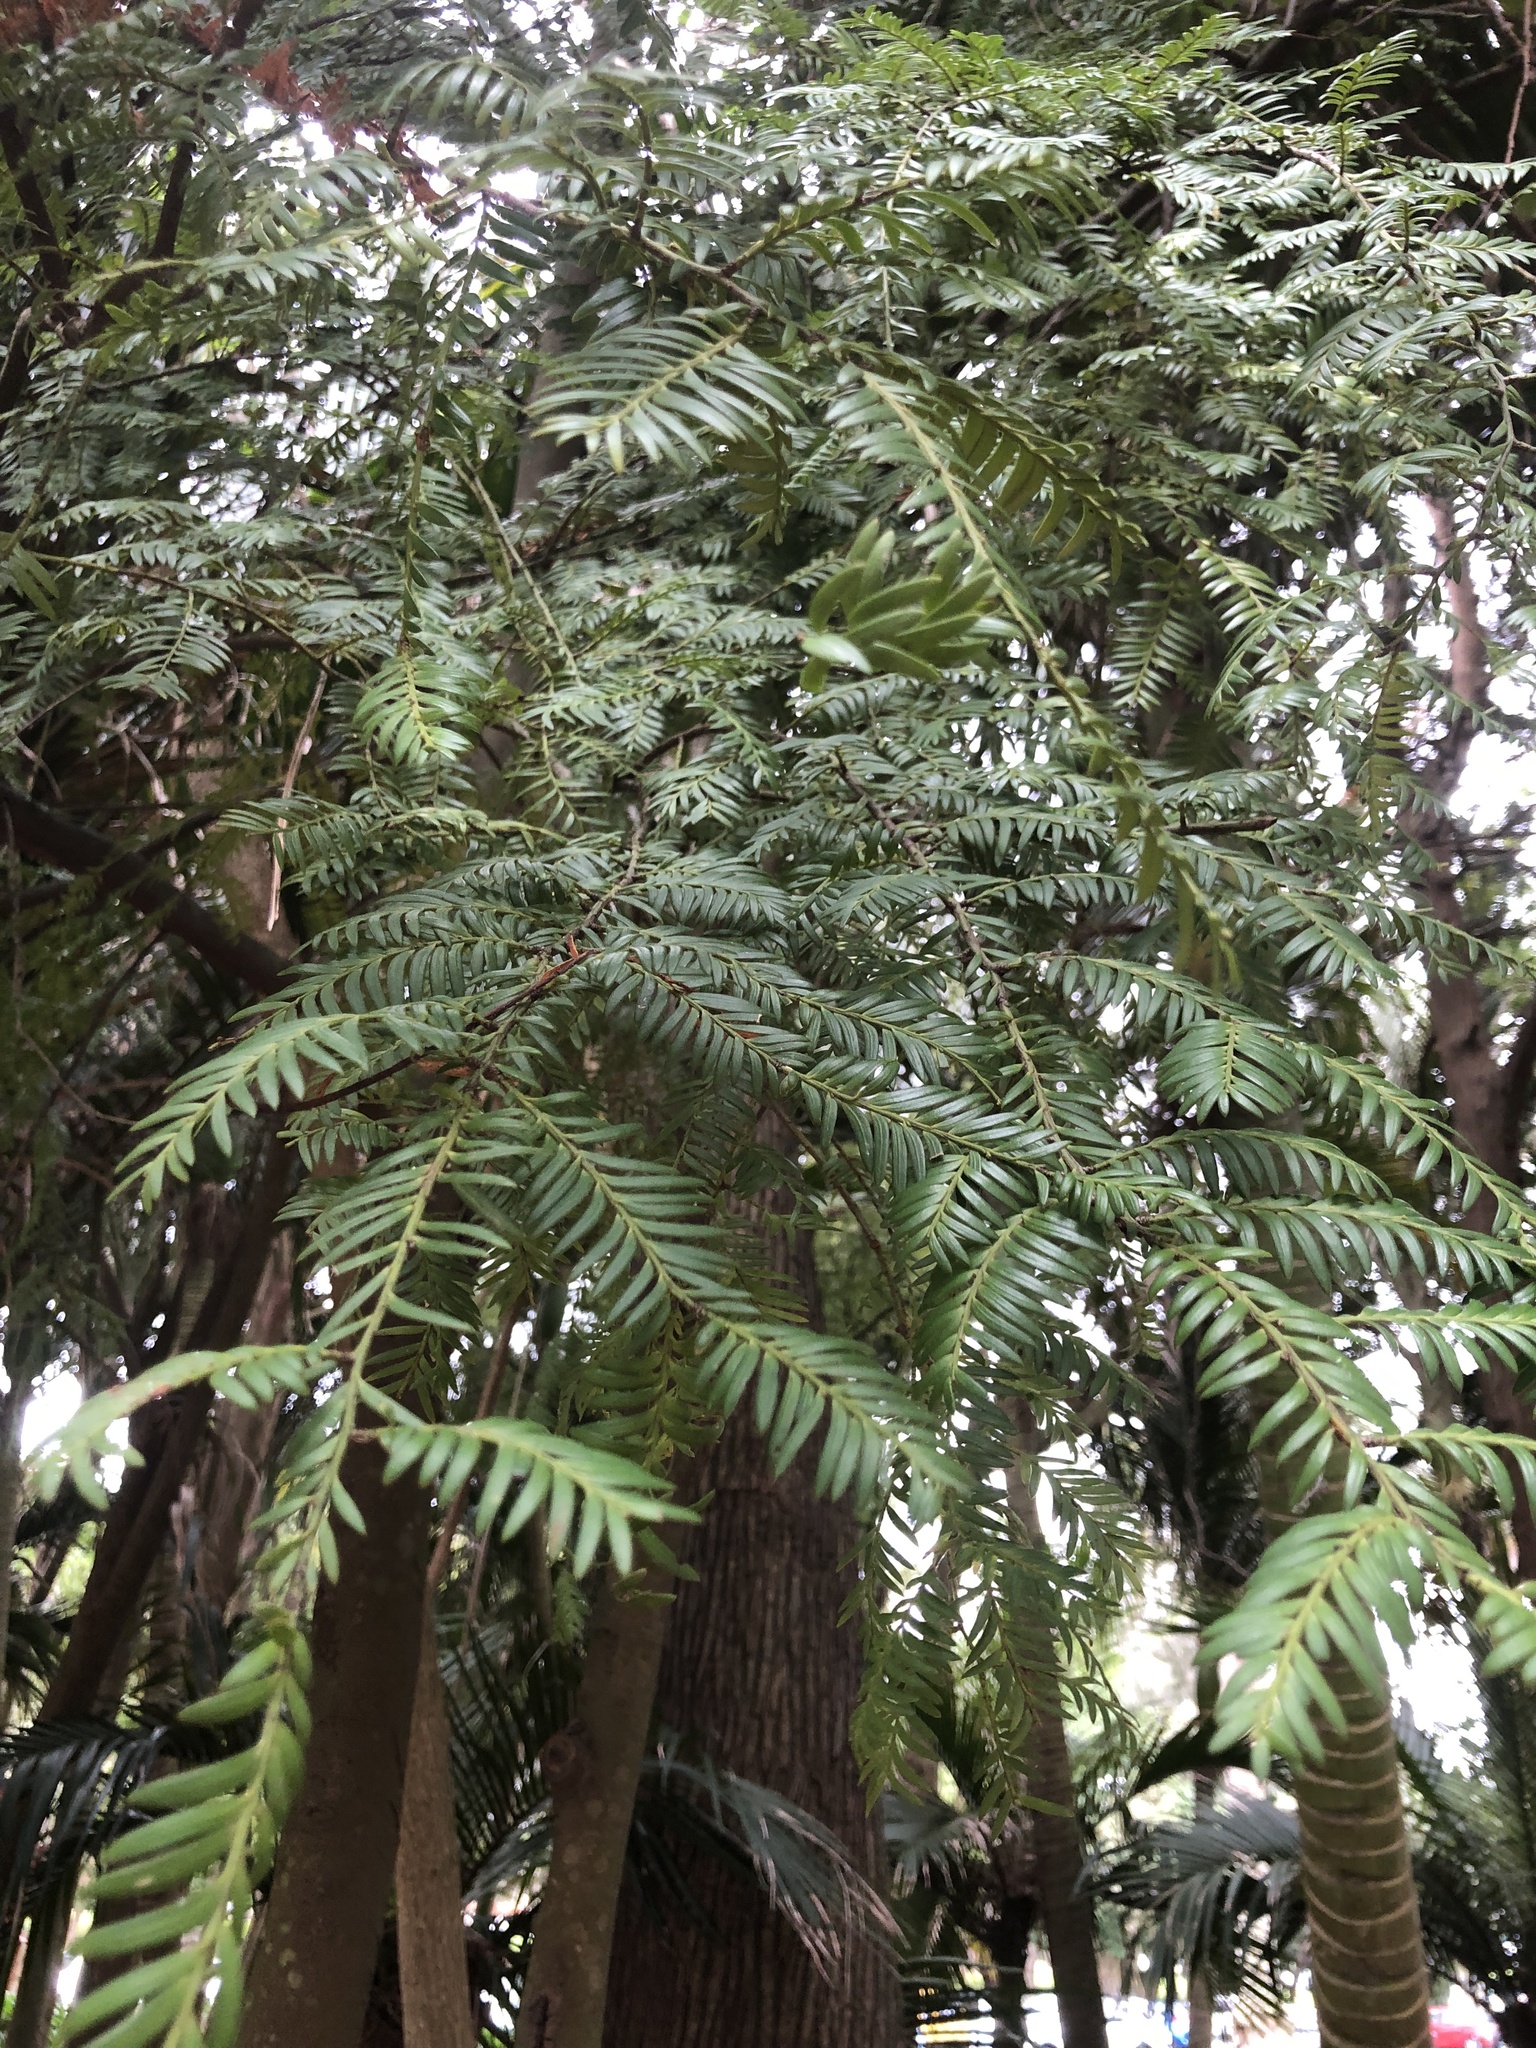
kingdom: Plantae
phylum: Tracheophyta
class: Pinopsida
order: Pinales
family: Podocarpaceae
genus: Prumnopitys
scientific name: Prumnopitys ferruginea
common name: Brown pine
